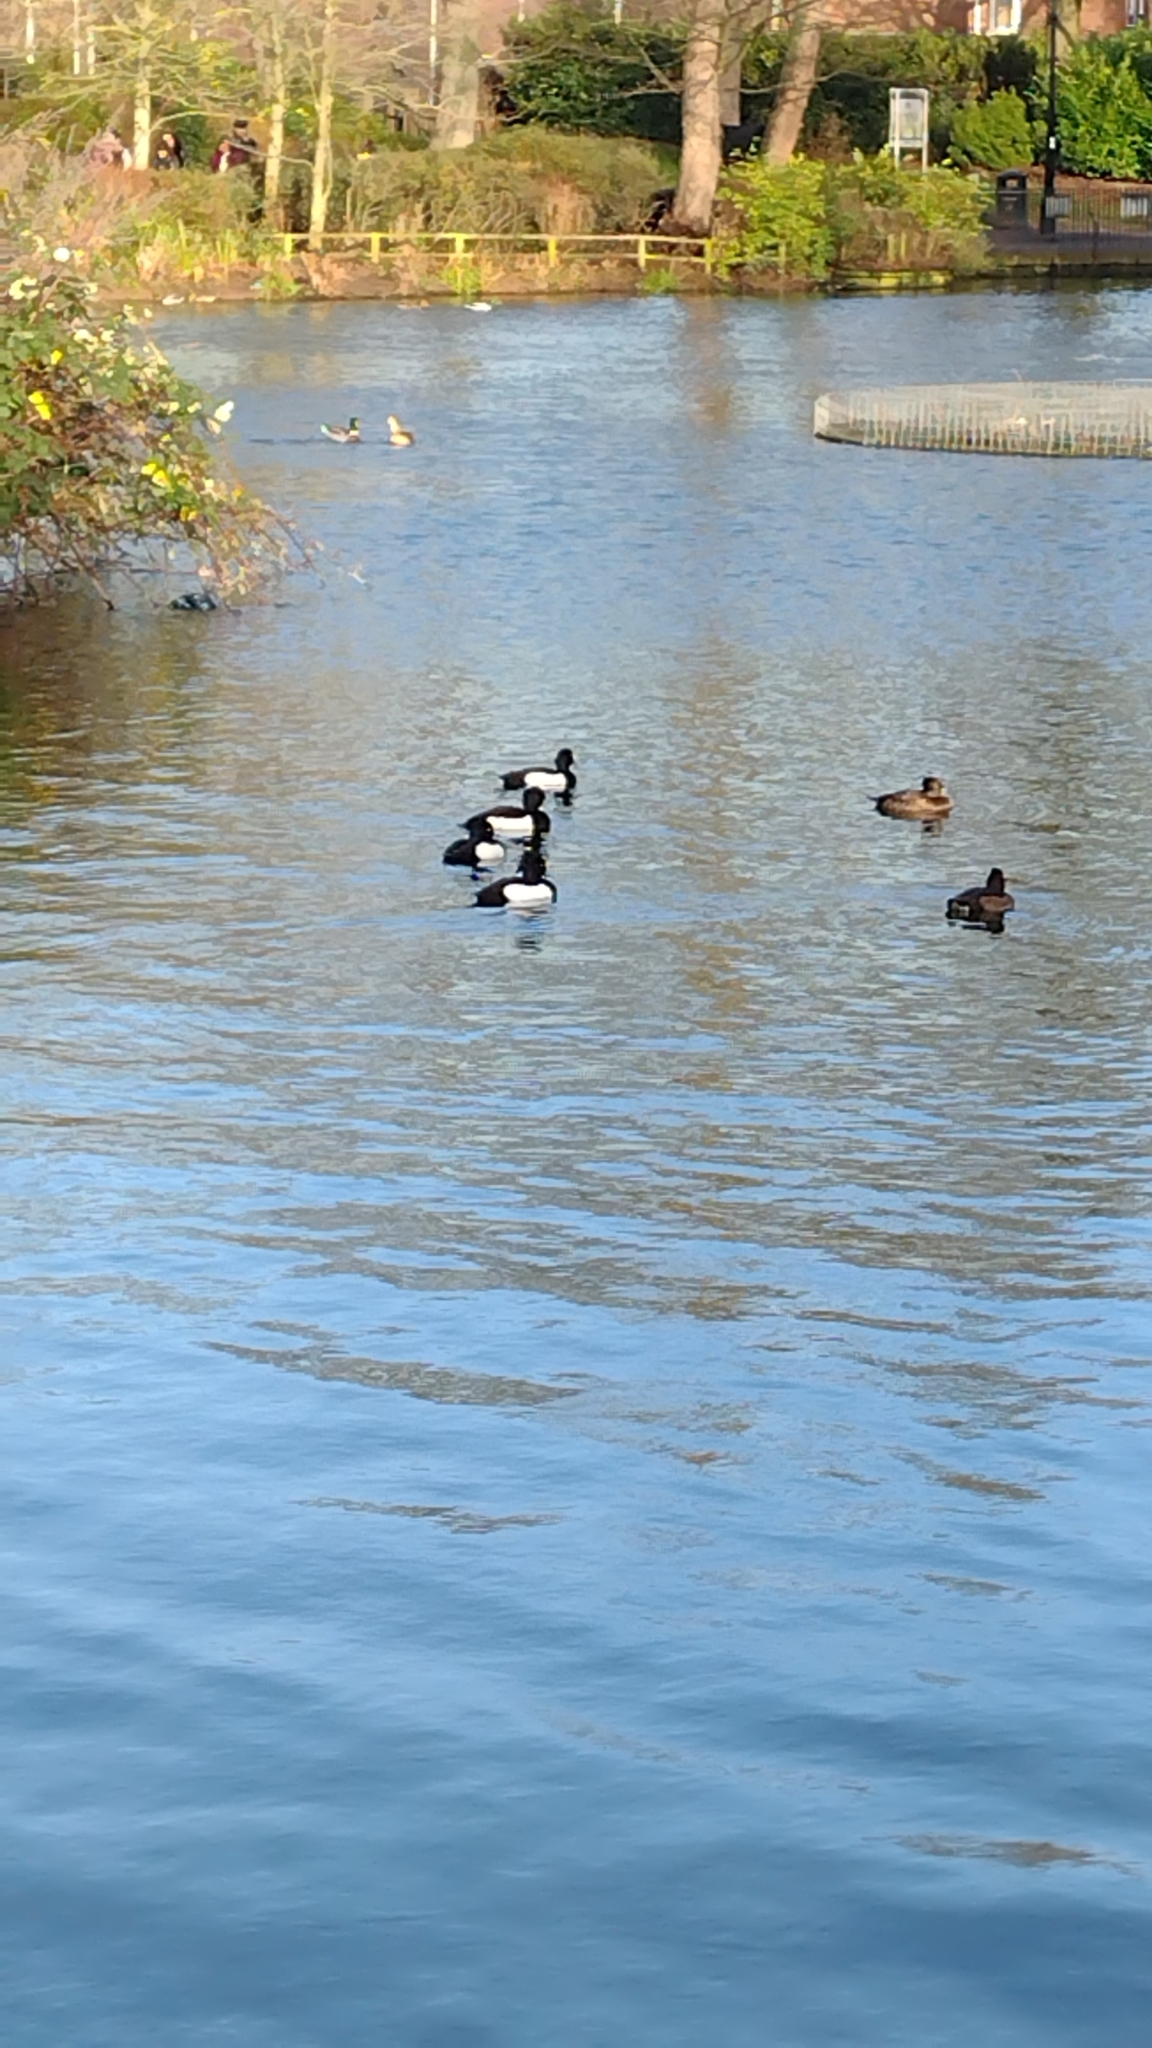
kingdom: Animalia
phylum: Chordata
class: Aves
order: Anseriformes
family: Anatidae
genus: Aythya
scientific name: Aythya fuligula
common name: Tufted duck
